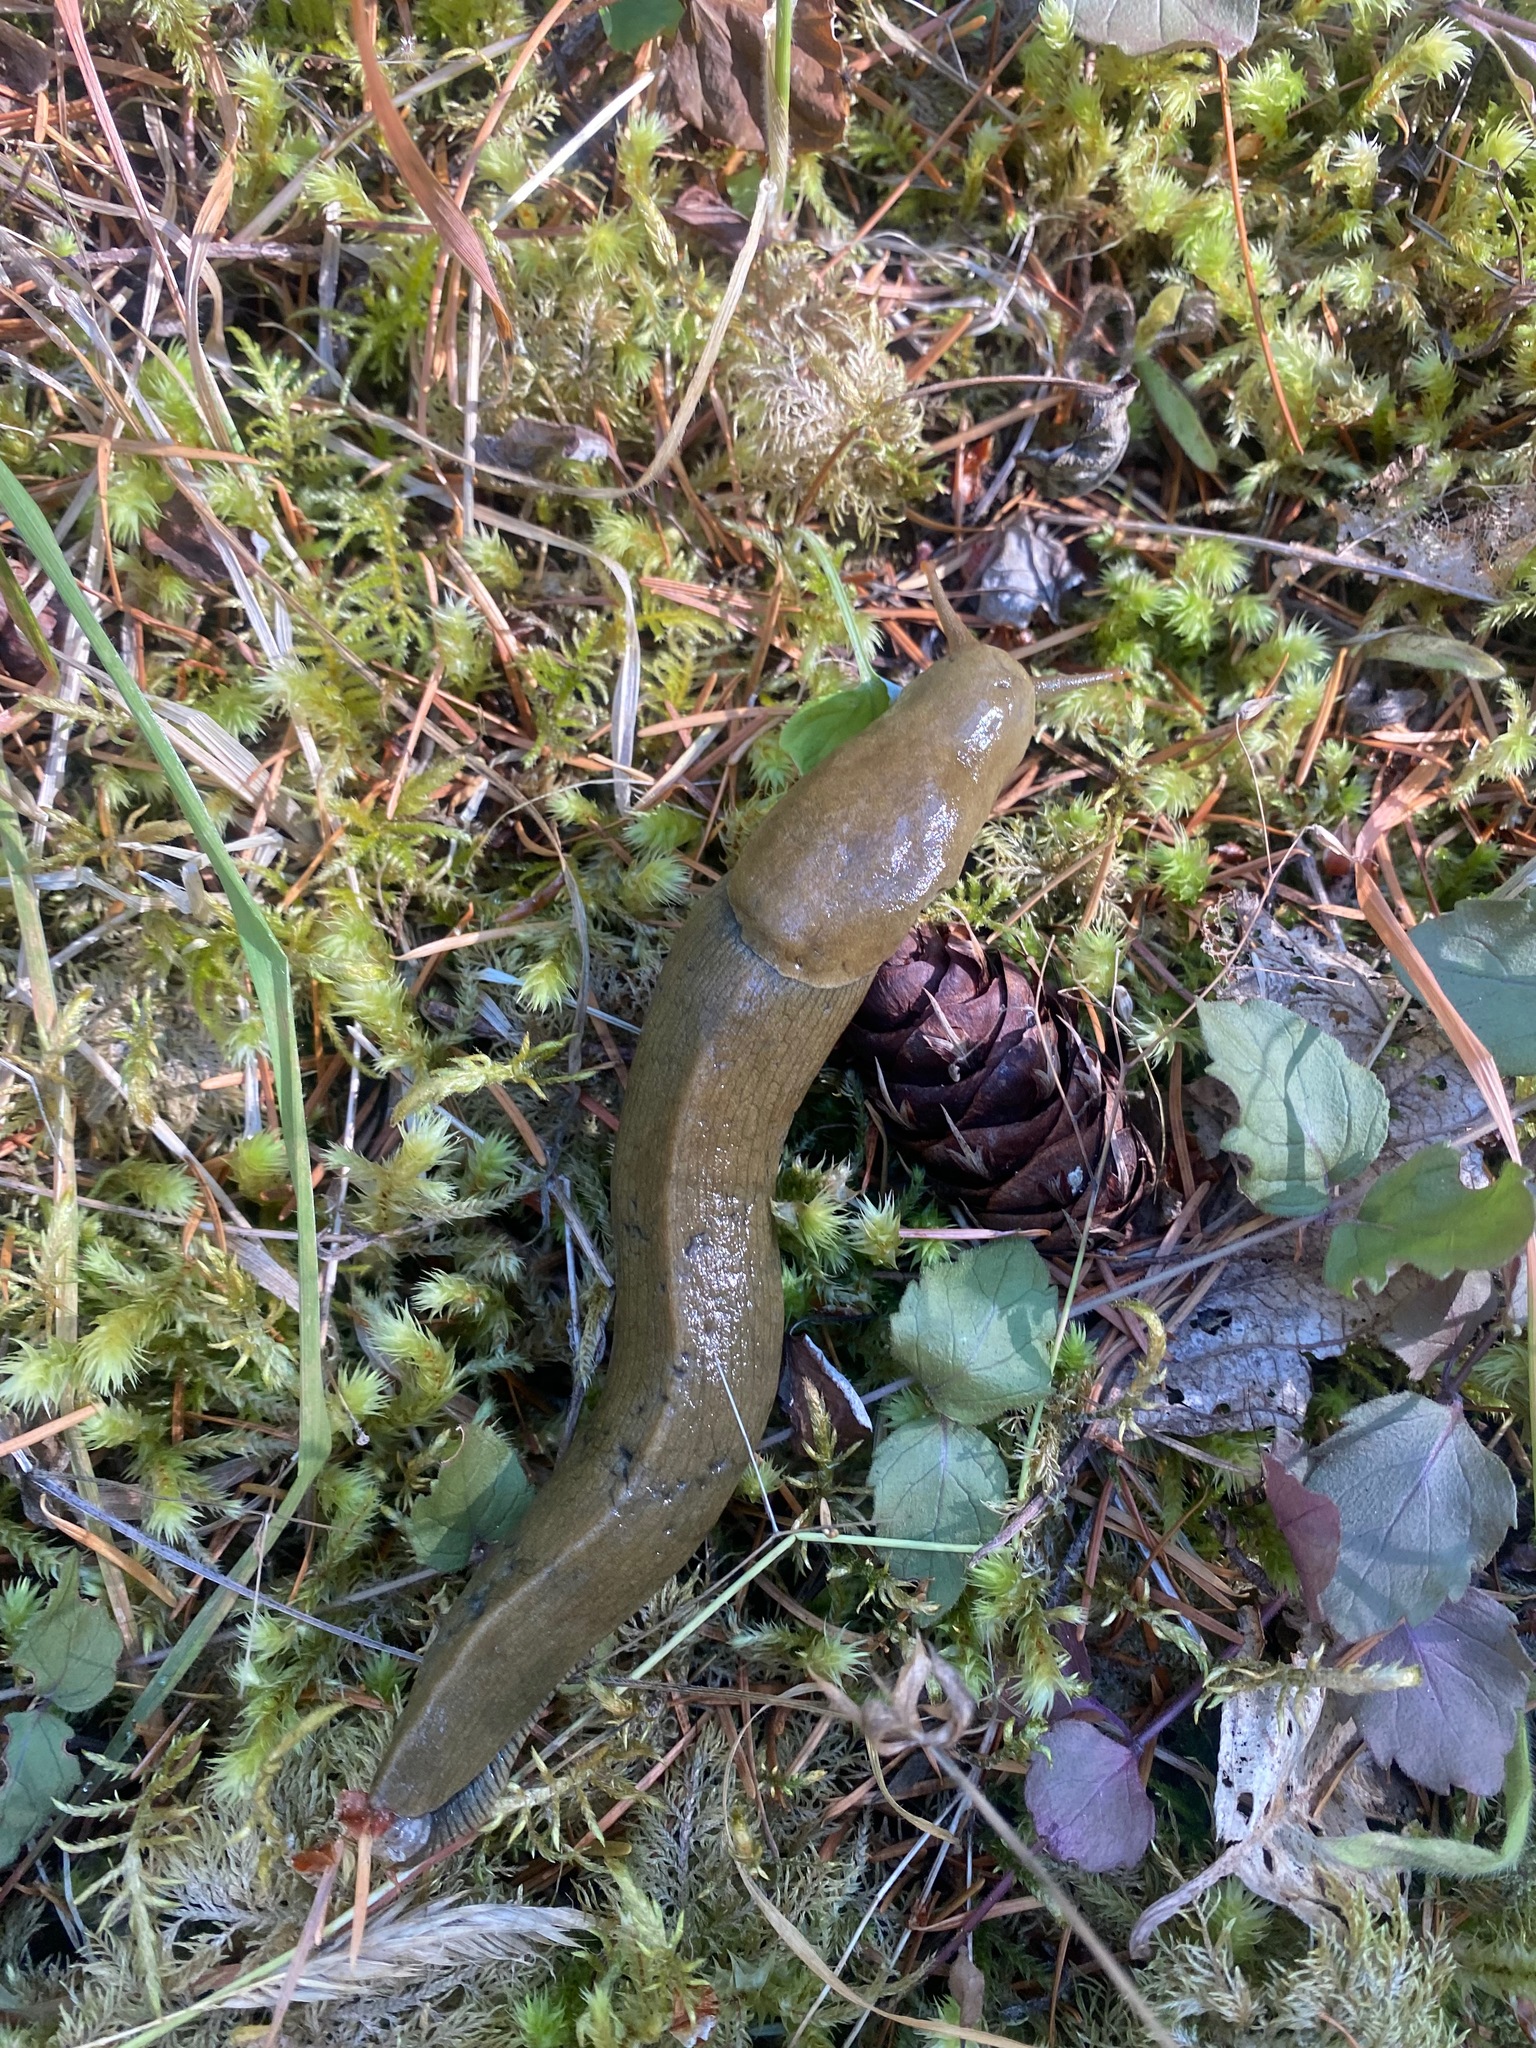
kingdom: Animalia
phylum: Mollusca
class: Gastropoda
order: Stylommatophora
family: Ariolimacidae
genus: Ariolimax
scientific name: Ariolimax columbianus
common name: Pacific banana slug
